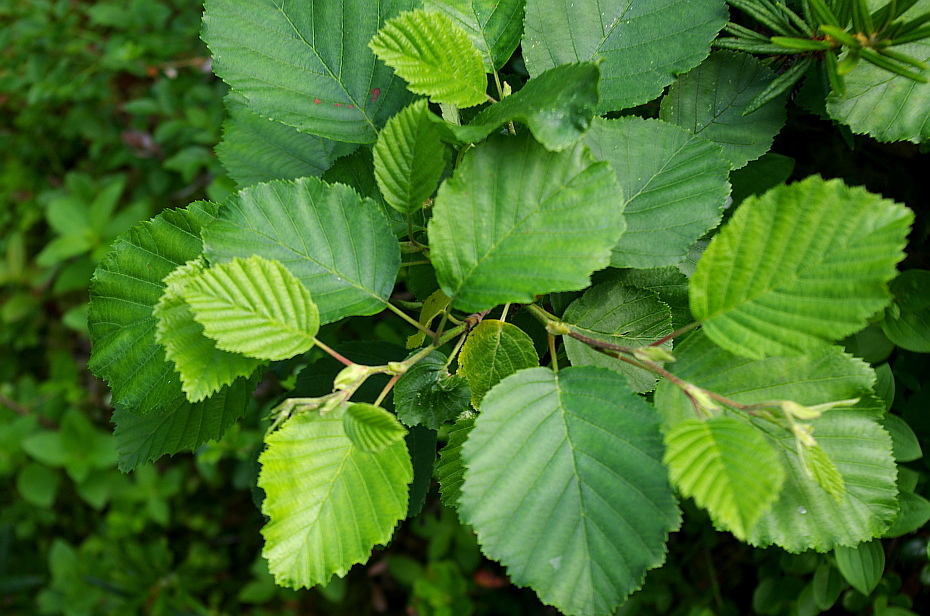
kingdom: Plantae
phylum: Tracheophyta
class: Magnoliopsida
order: Fagales
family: Betulaceae
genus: Alnus
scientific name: Alnus incana
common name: Grey alder
